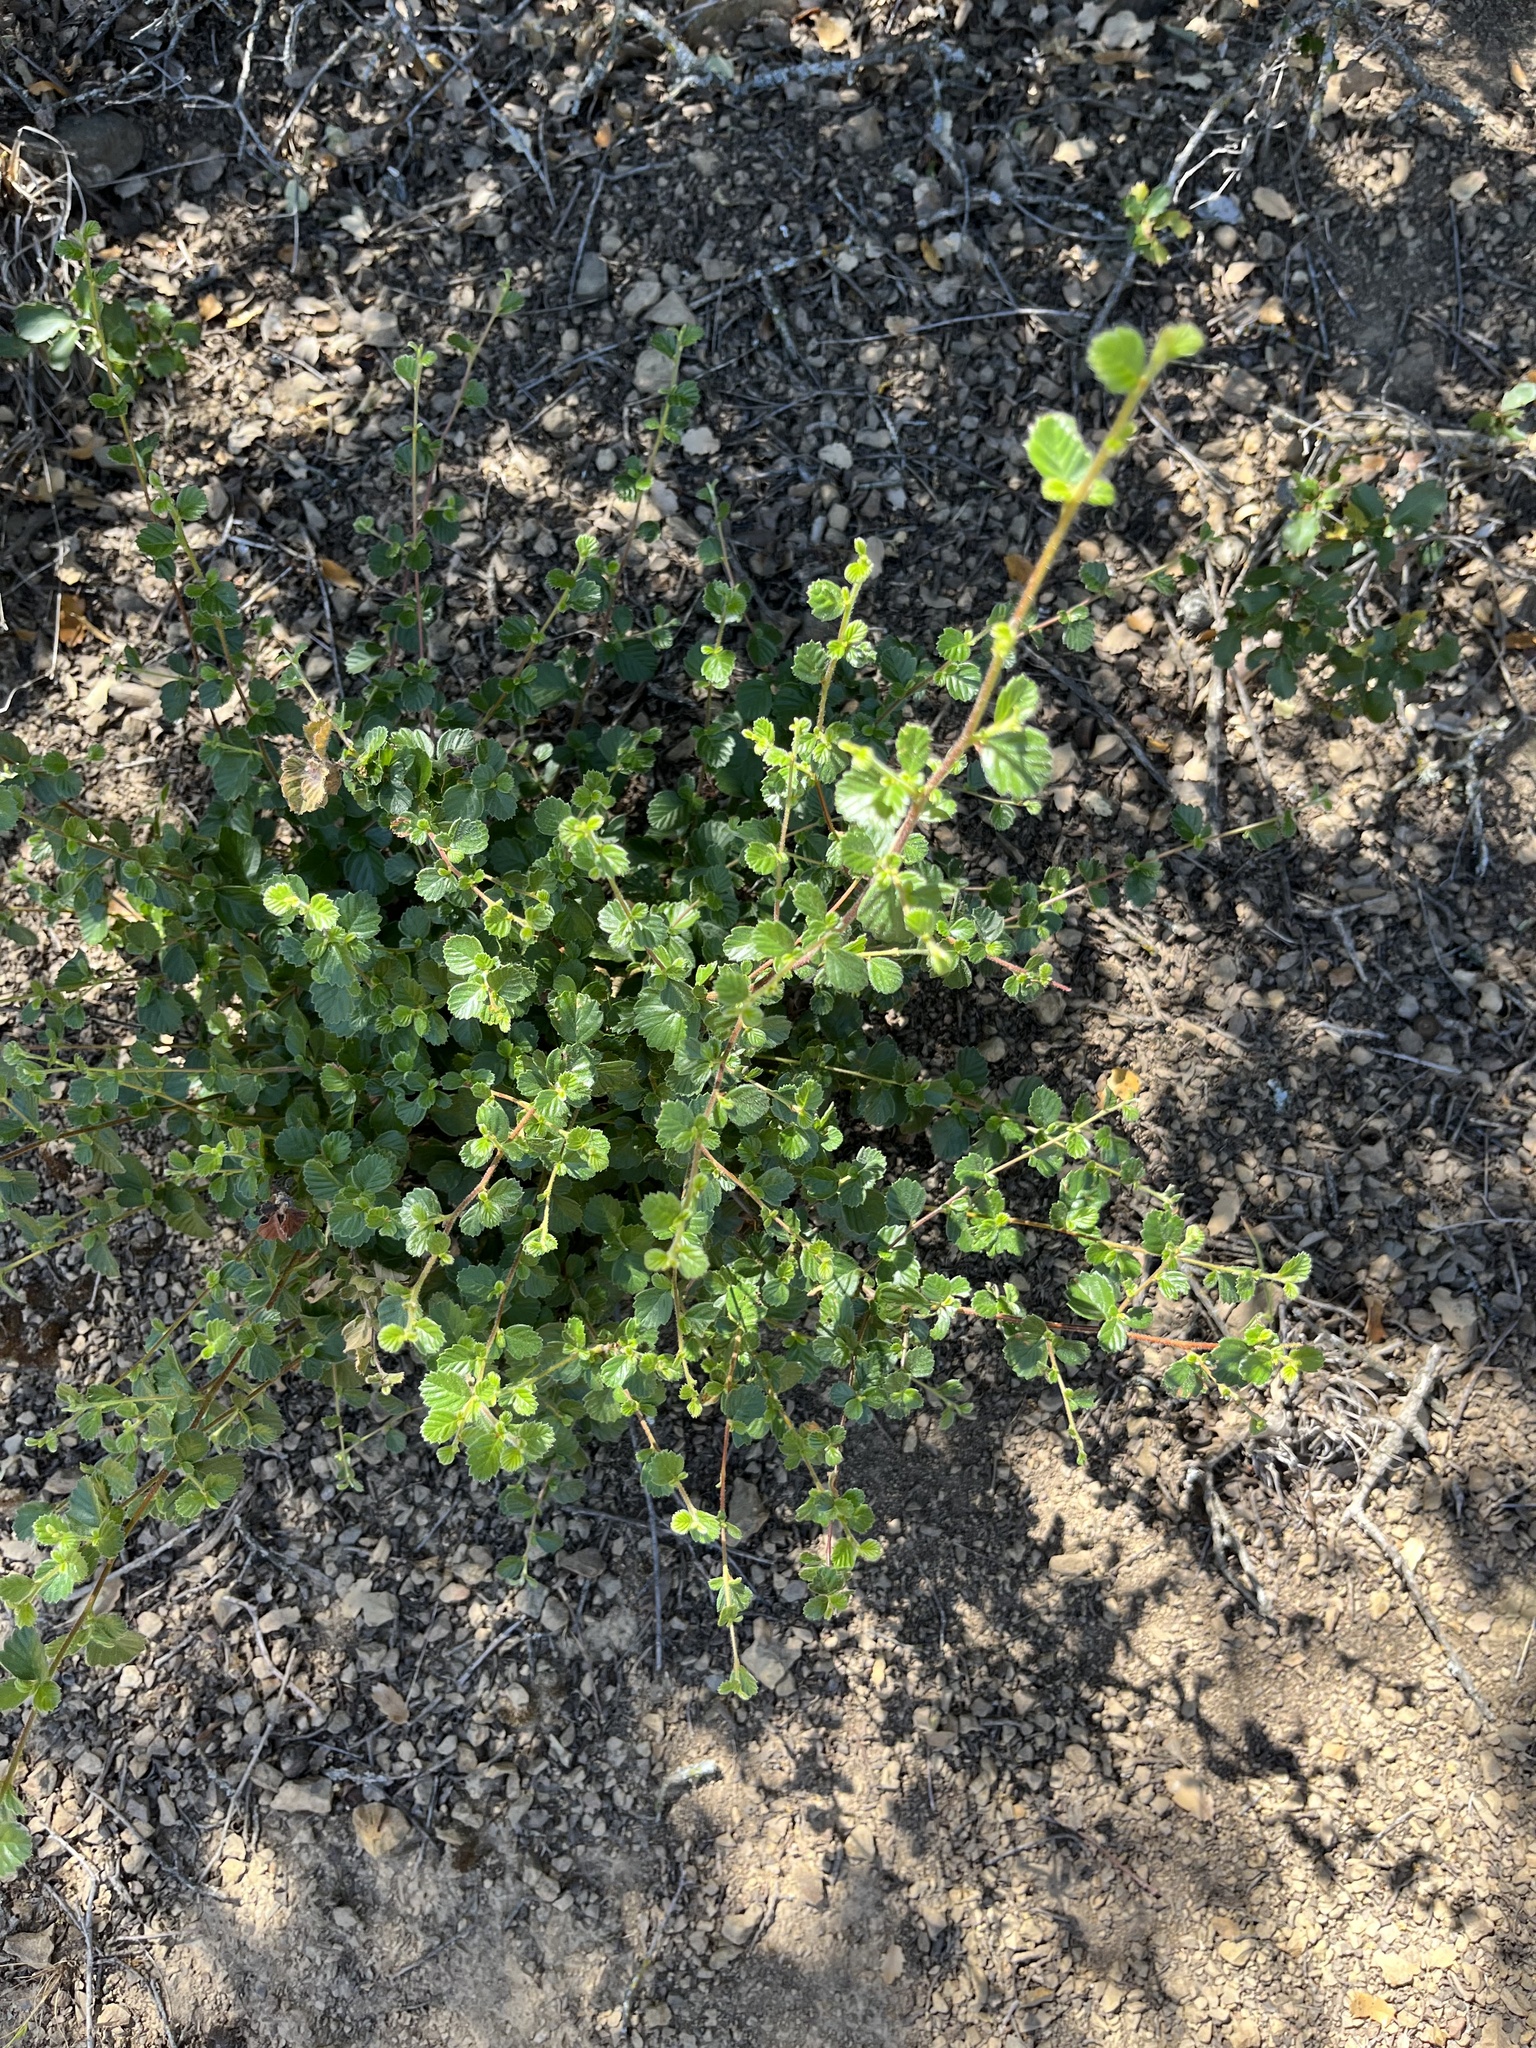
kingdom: Plantae
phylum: Tracheophyta
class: Magnoliopsida
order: Rosales
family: Rosaceae
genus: Cercocarpus
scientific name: Cercocarpus betuloides
